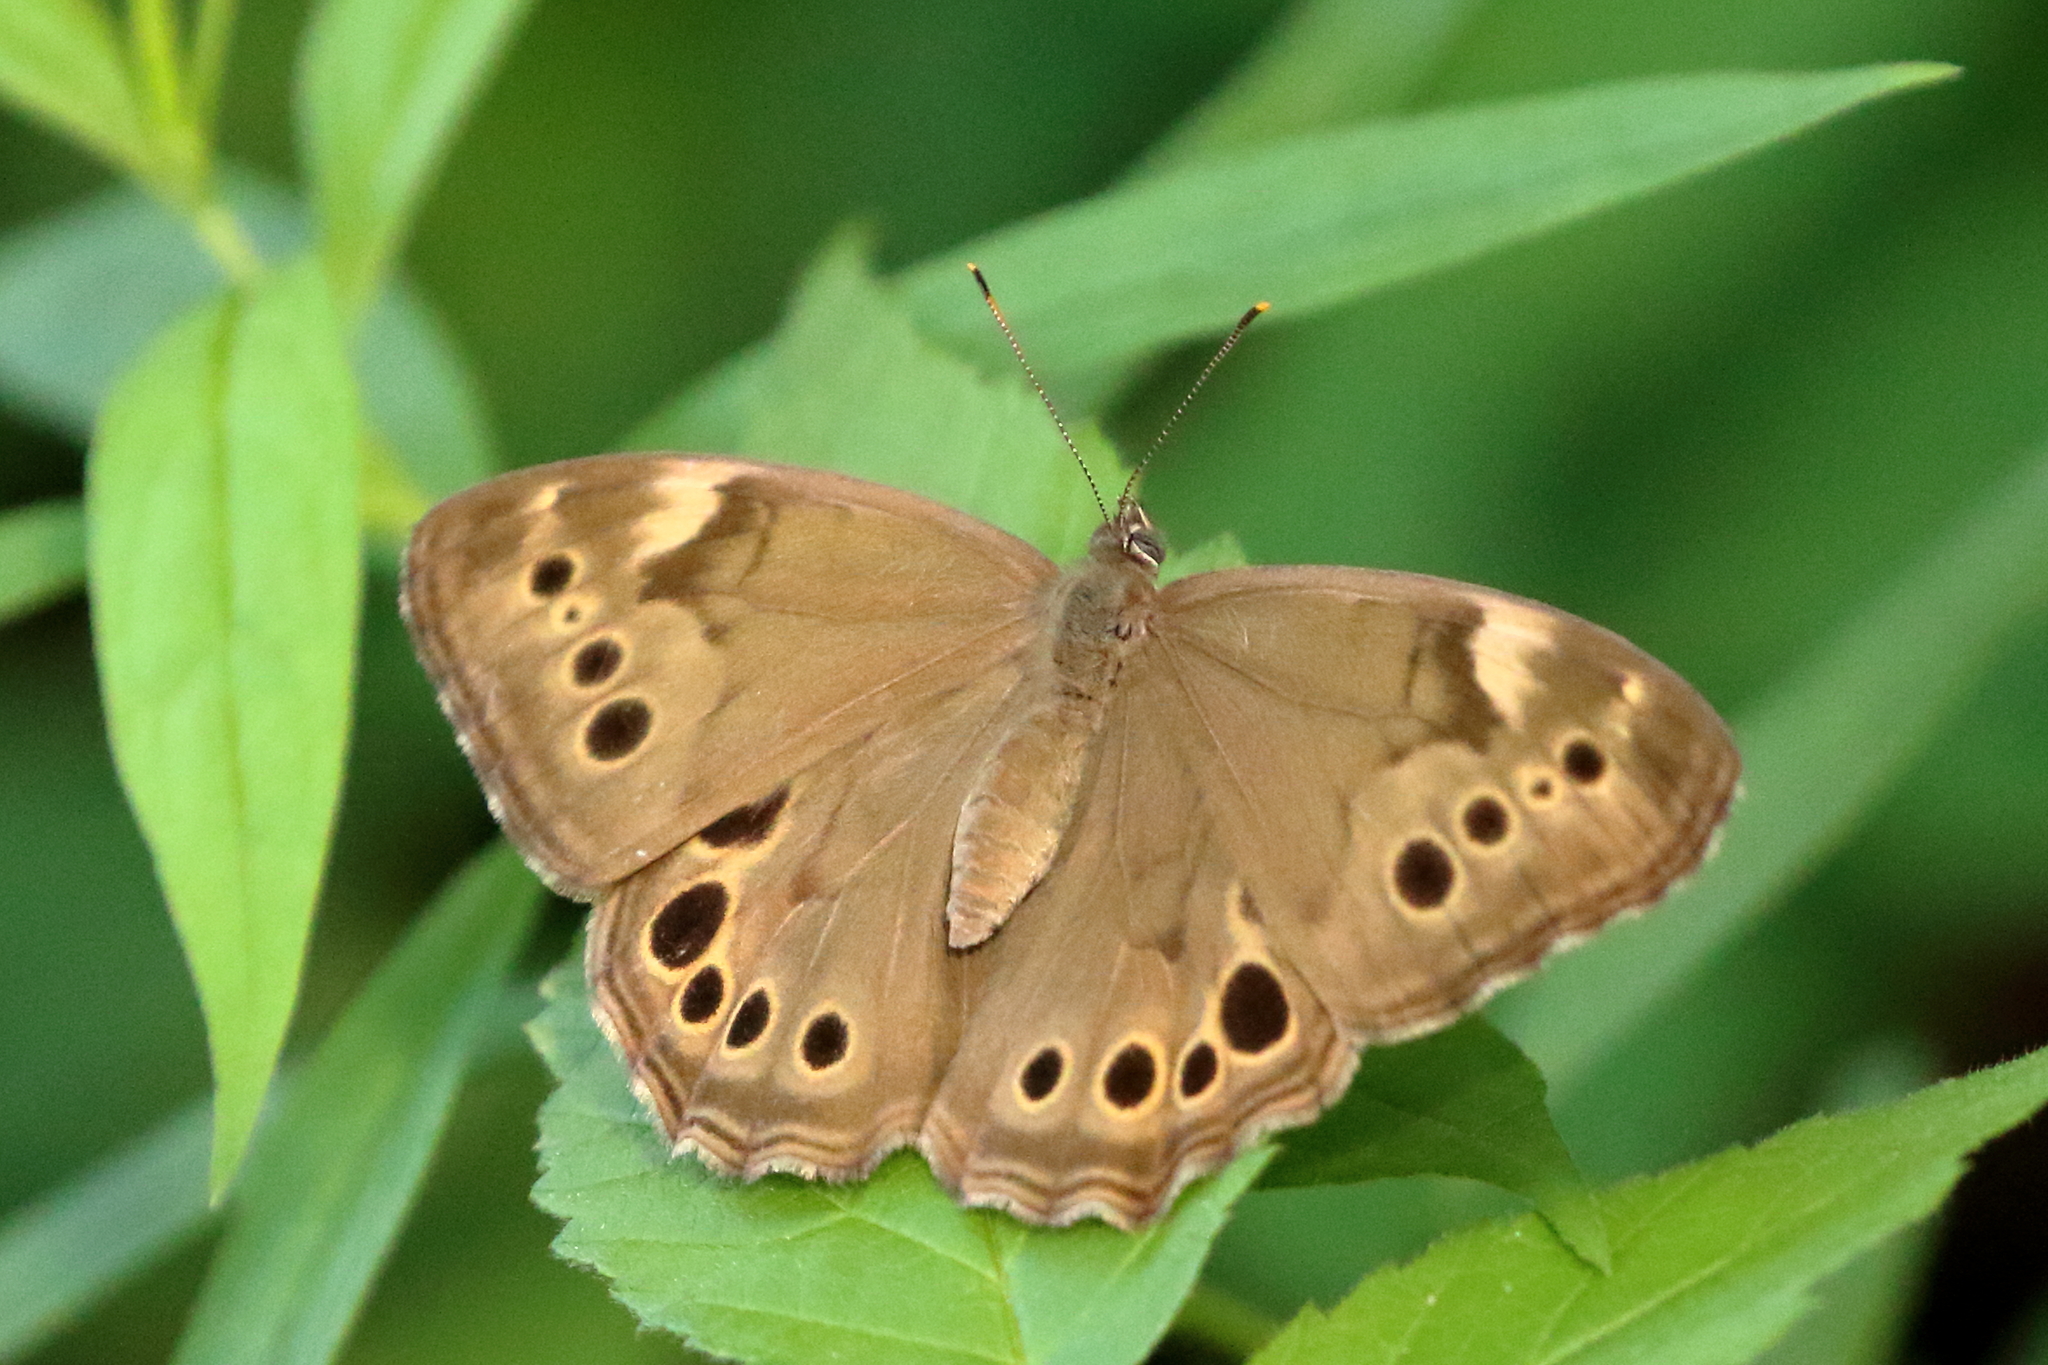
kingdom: Animalia
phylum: Arthropoda
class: Insecta
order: Lepidoptera
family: Nymphalidae
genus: Lethe
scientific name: Lethe anthedon
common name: Northern pearly-eye
